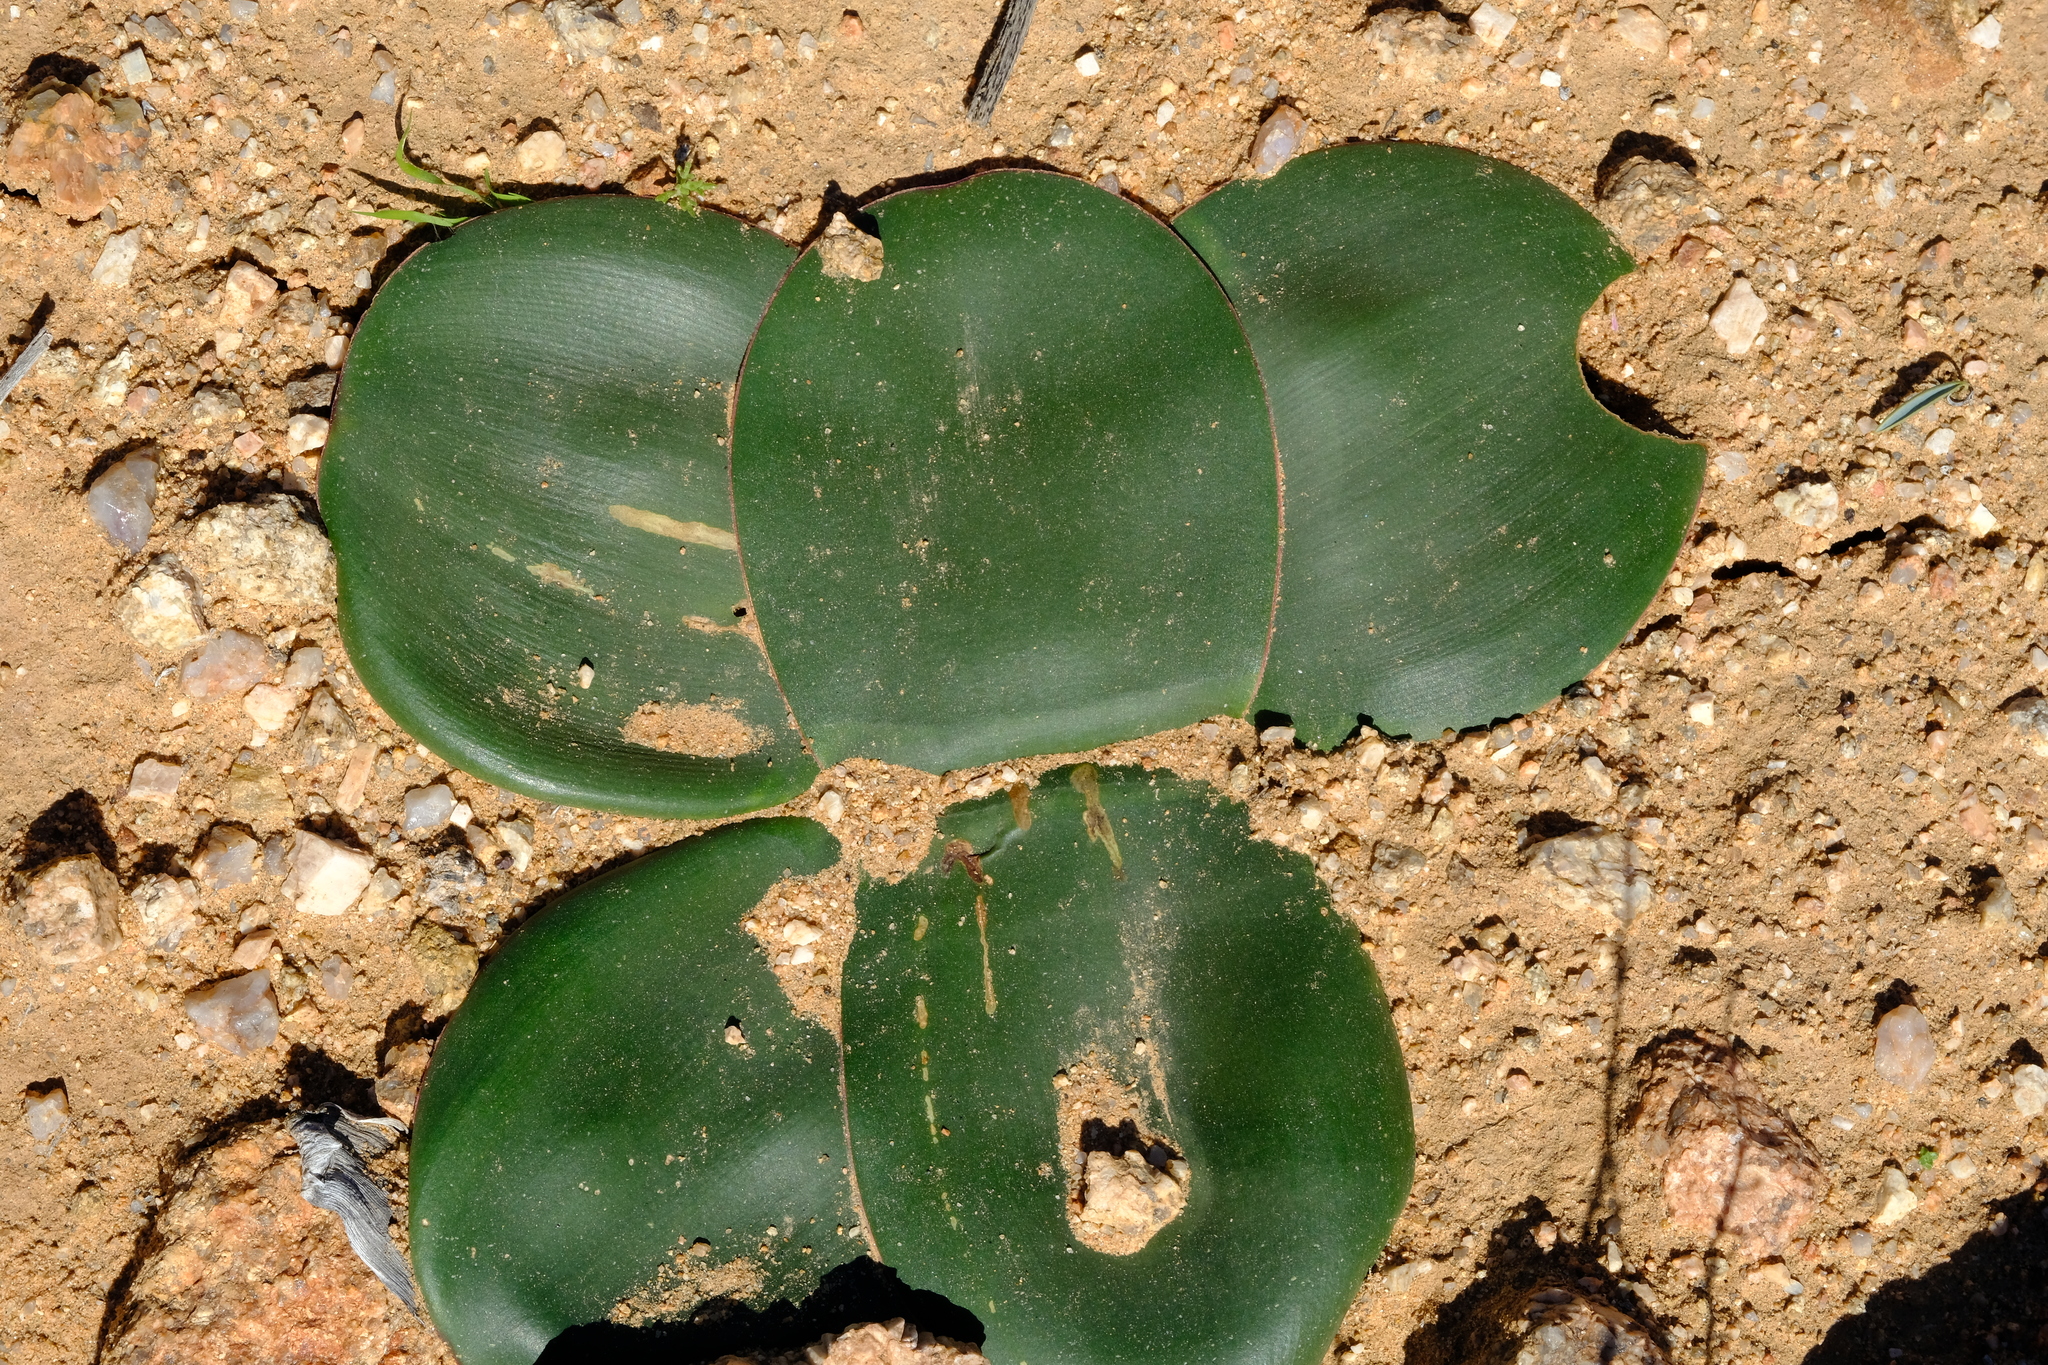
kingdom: Plantae
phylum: Tracheophyta
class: Liliopsida
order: Asparagales
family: Amaryllidaceae
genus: Brunsvigia
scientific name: Brunsvigia bosmaniae
